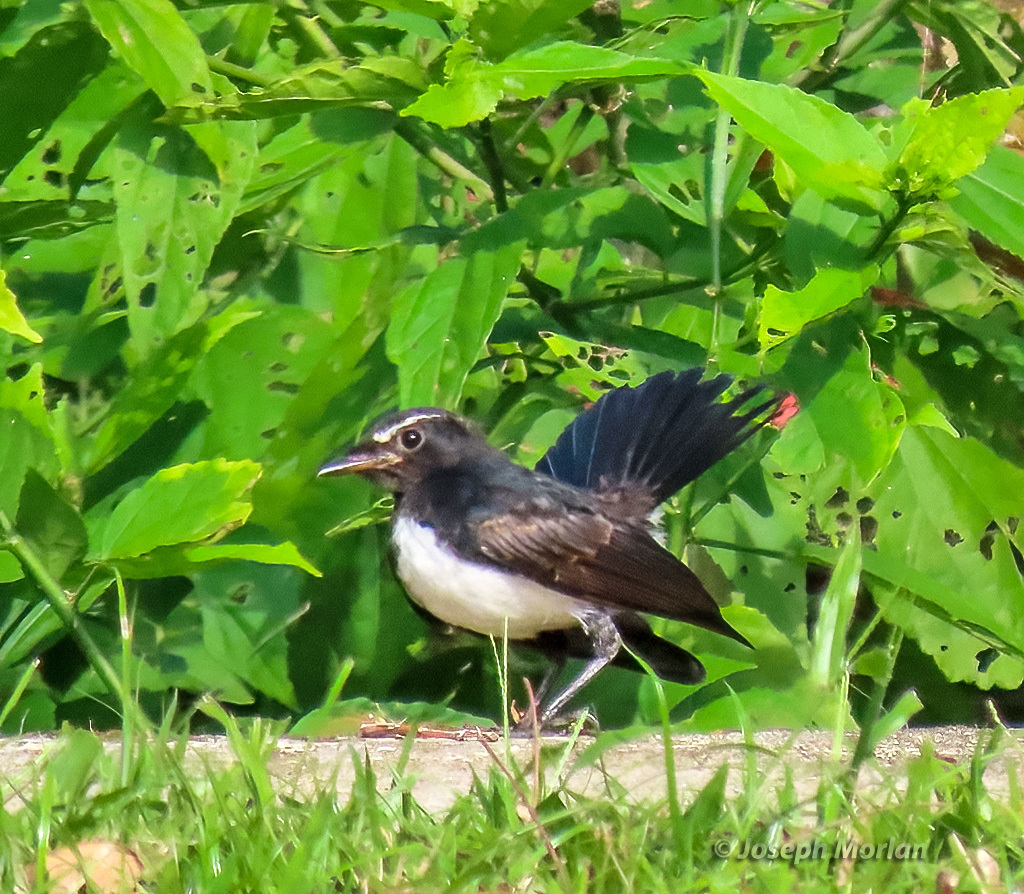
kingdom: Animalia
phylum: Chordata
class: Aves
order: Passeriformes
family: Rhipiduridae
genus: Rhipidura
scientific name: Rhipidura leucophrys
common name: Willie wagtail
